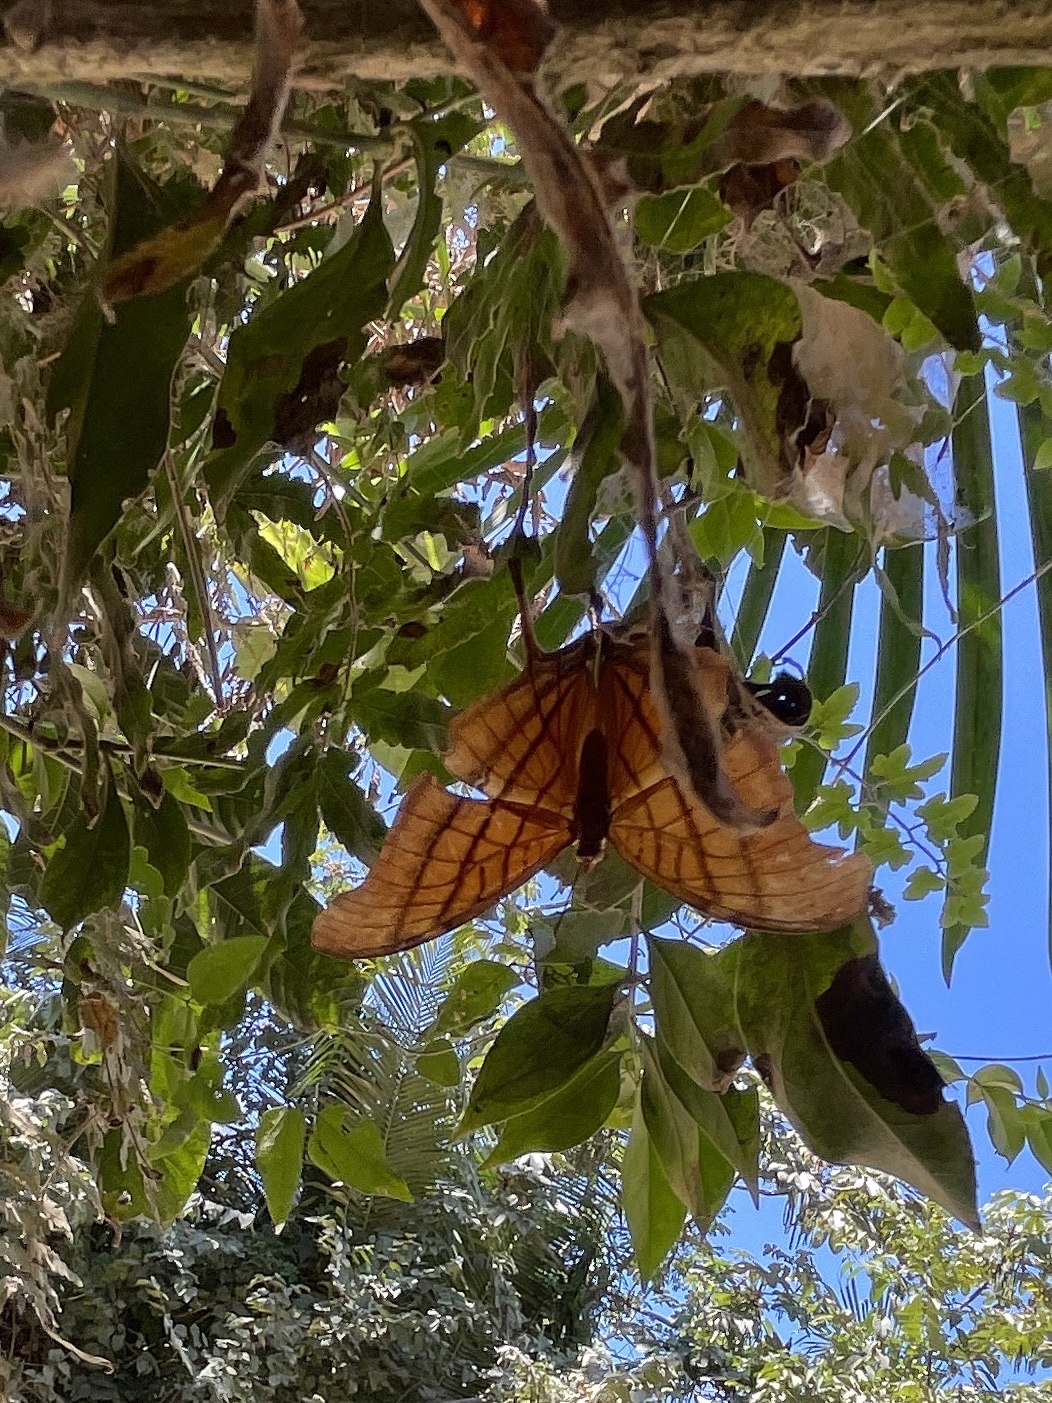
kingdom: Animalia
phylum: Arthropoda
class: Insecta
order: Lepidoptera
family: Nymphalidae
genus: Marpesia
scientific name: Marpesia petreus
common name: Red dagger wing
